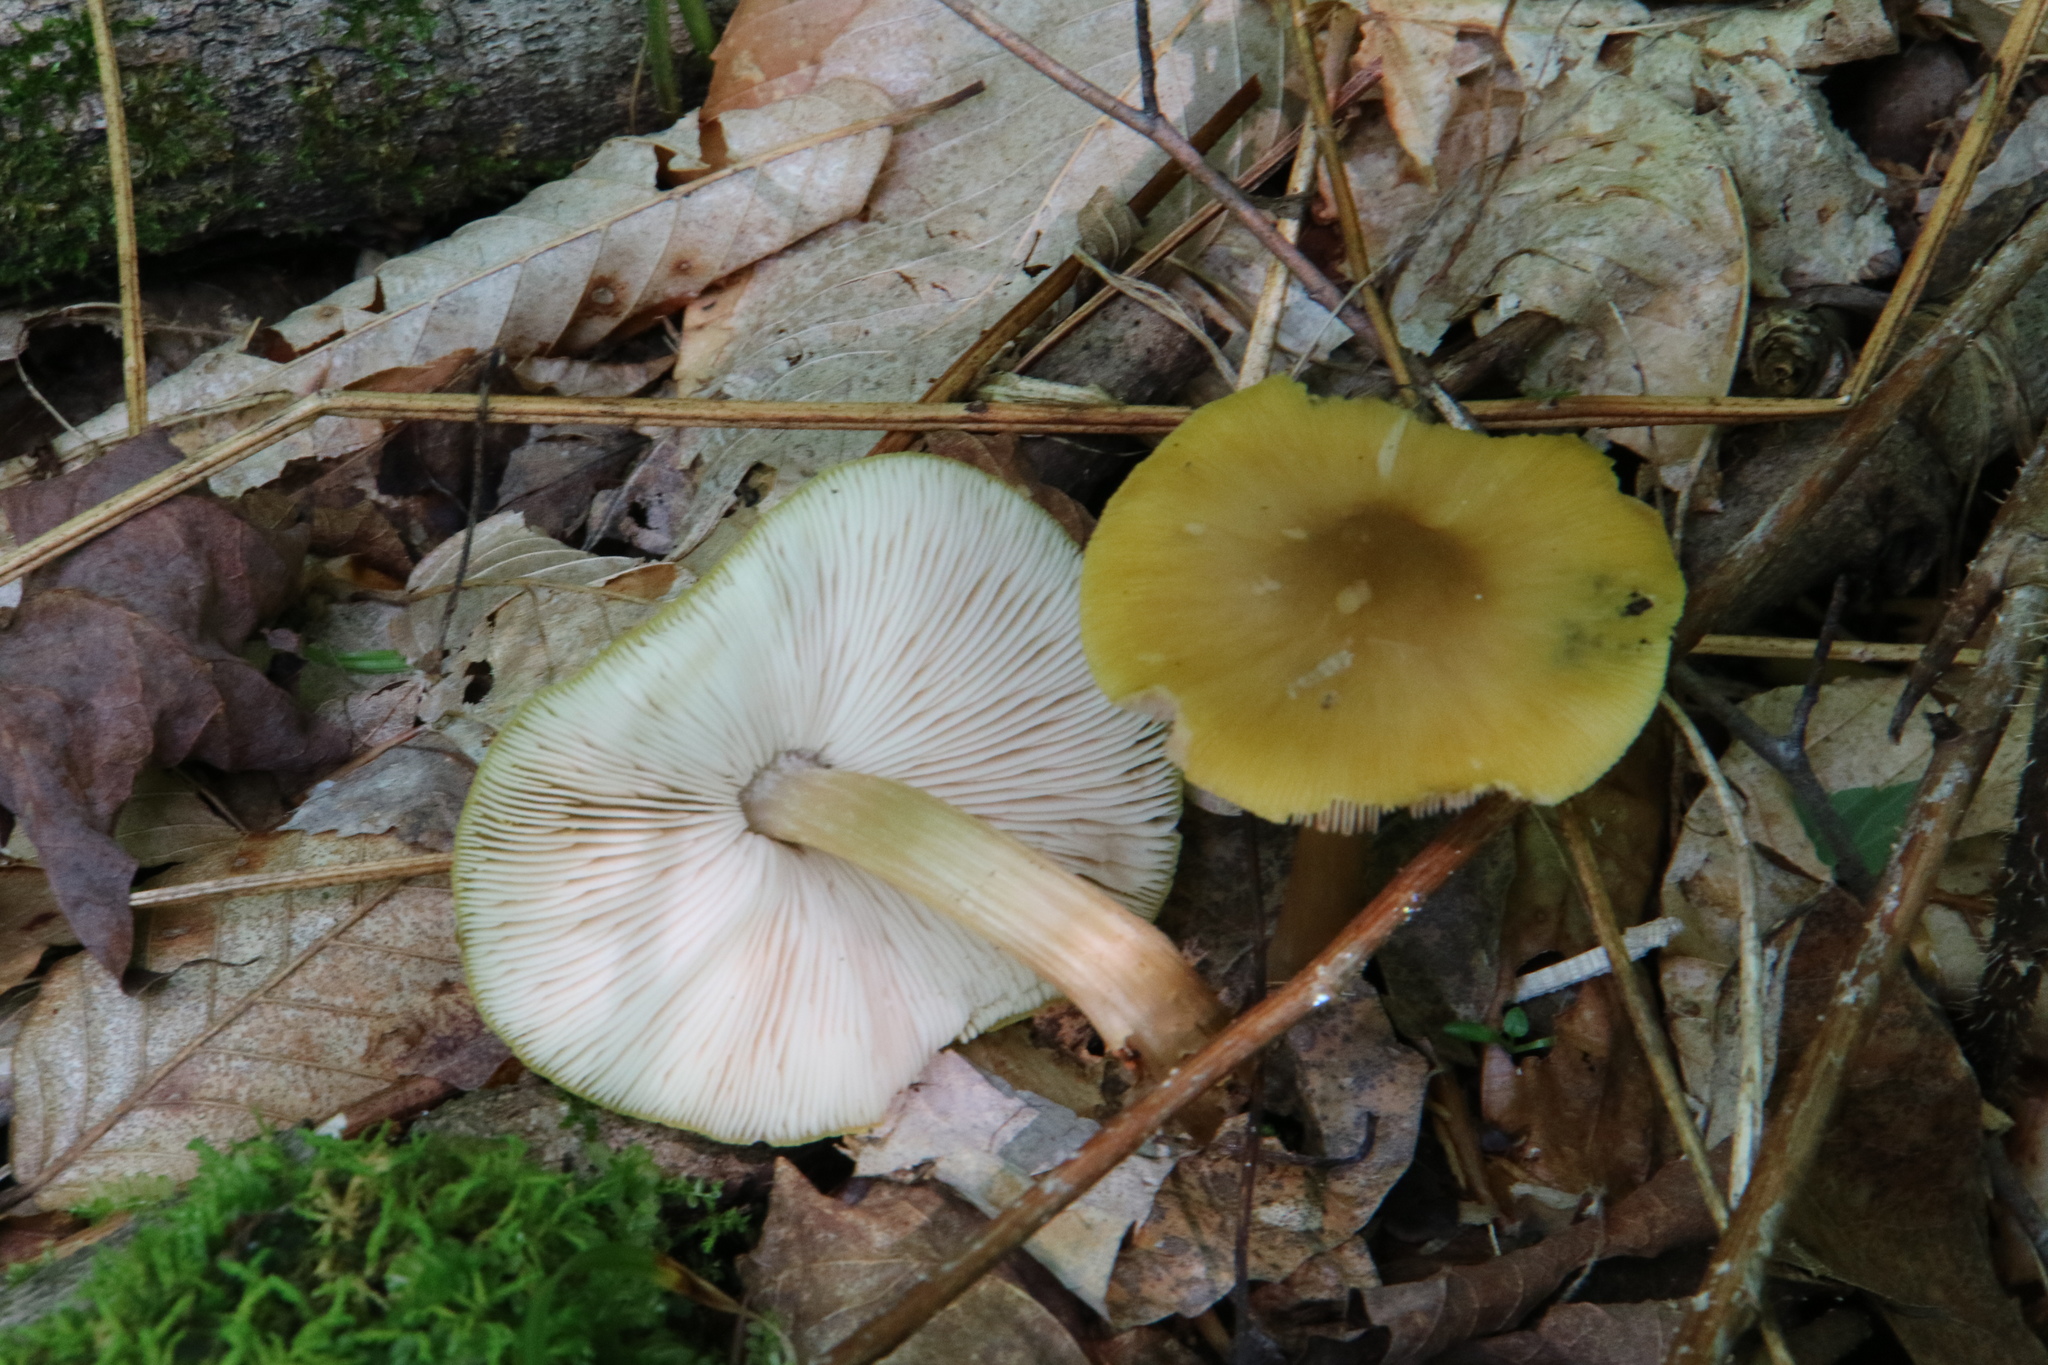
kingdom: Fungi
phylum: Basidiomycota
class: Agaricomycetes
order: Agaricales
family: Pluteaceae
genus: Pluteus
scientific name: Pluteus flavofuligineus
